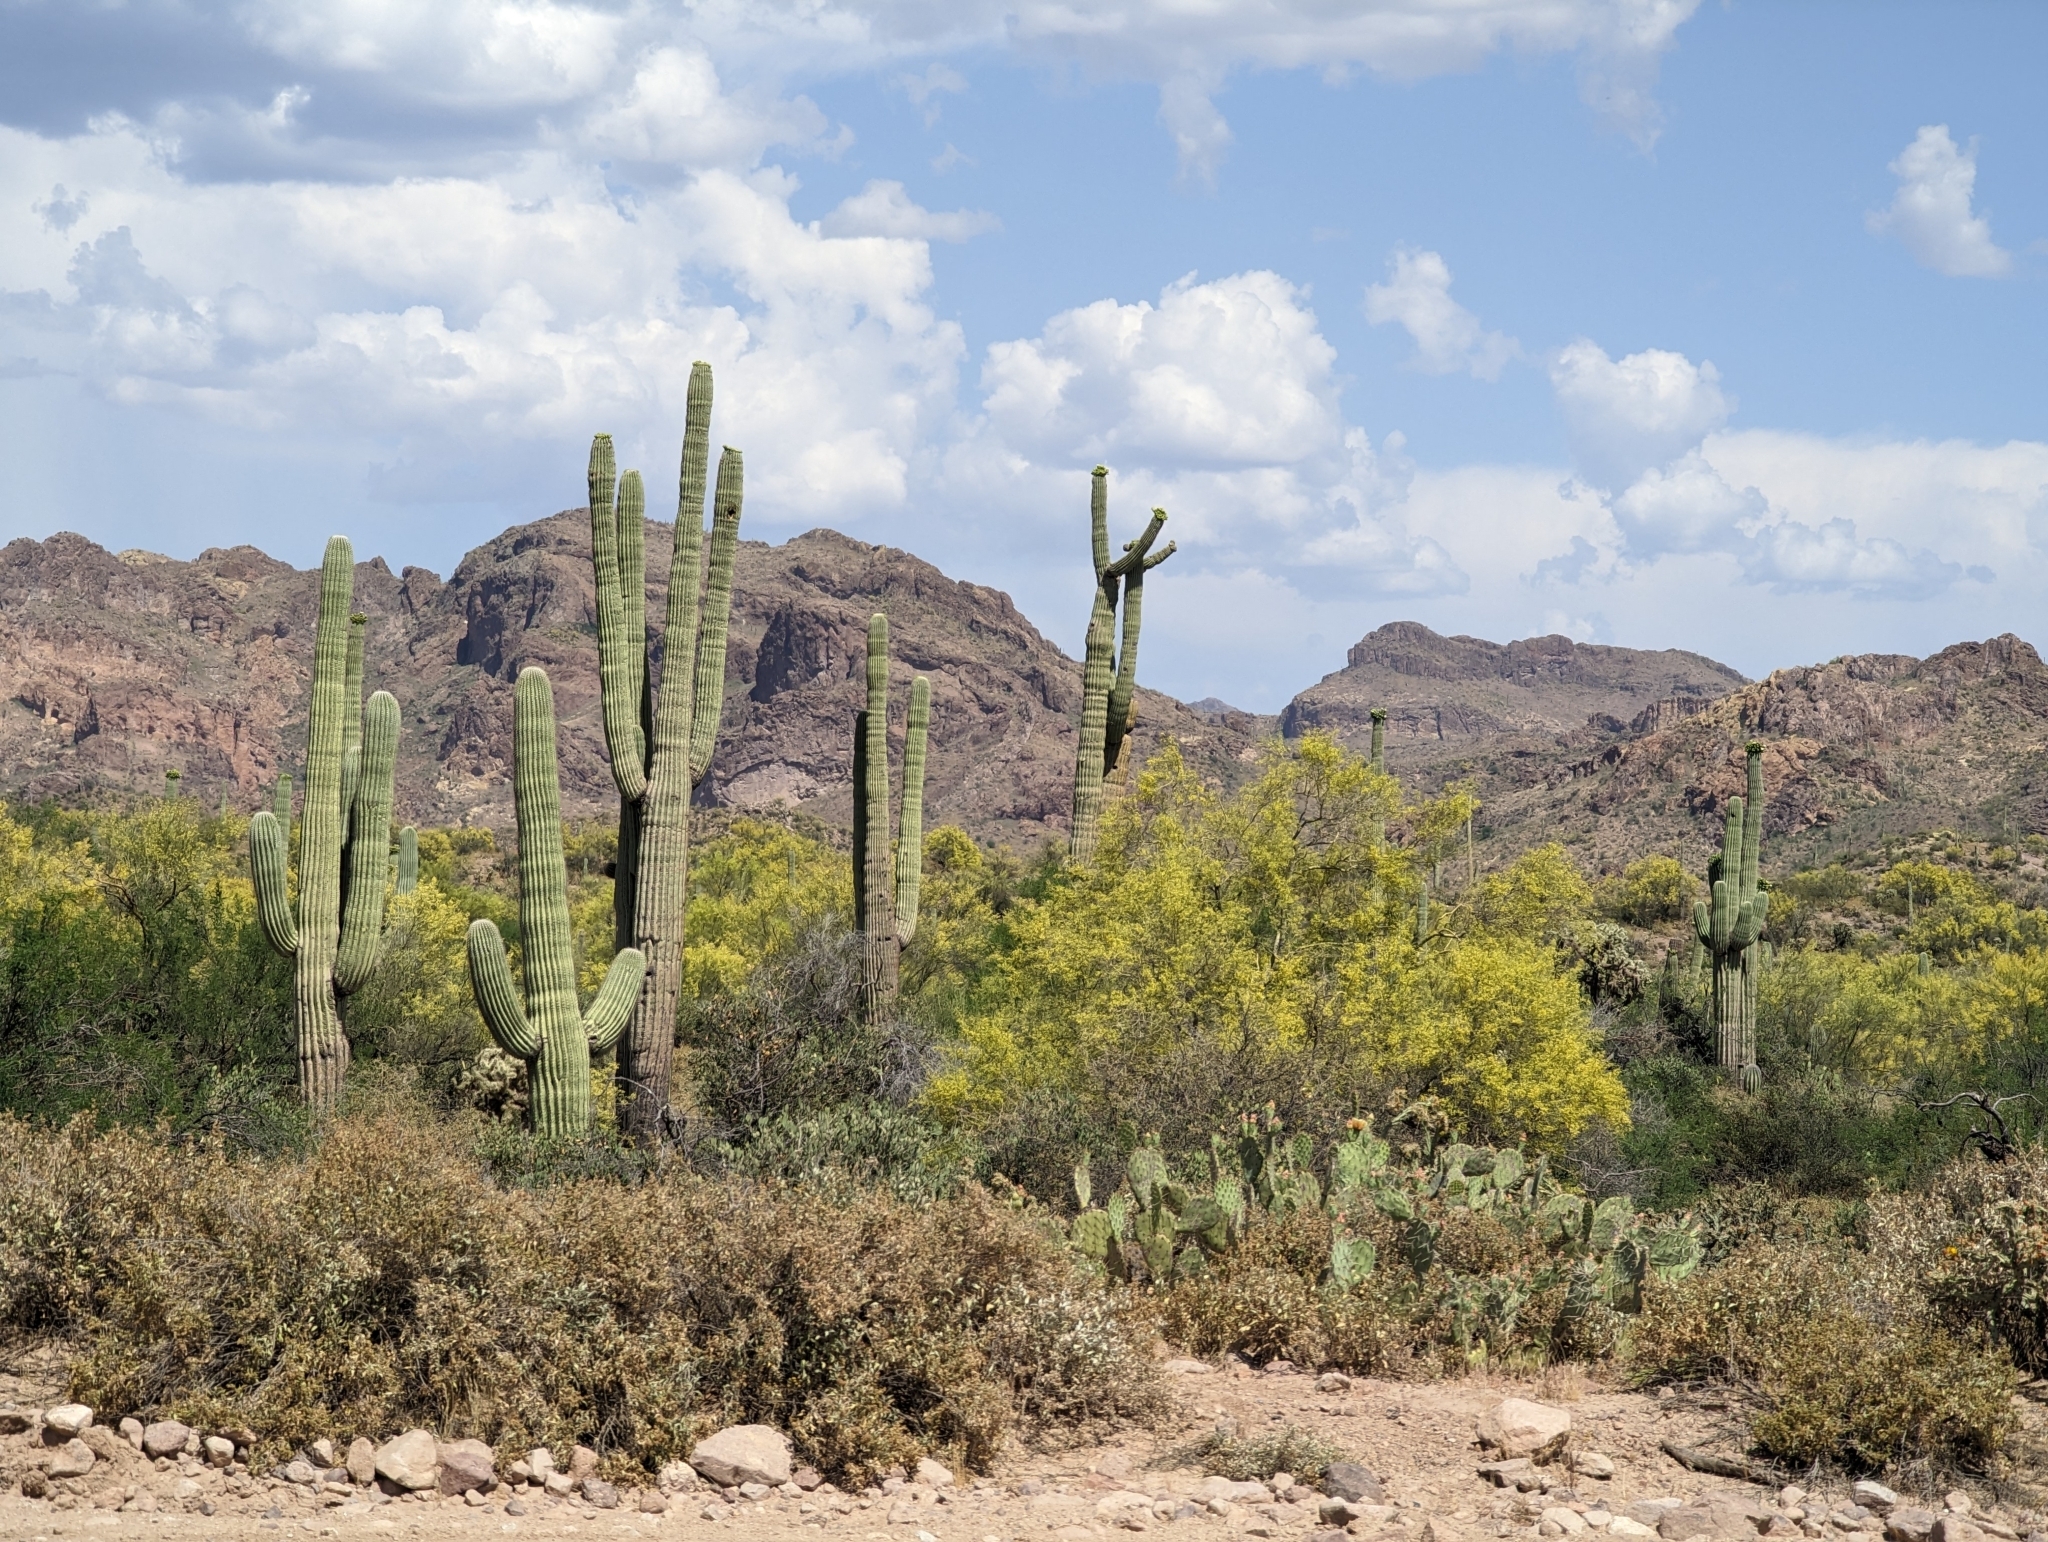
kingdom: Plantae
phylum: Tracheophyta
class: Magnoliopsida
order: Caryophyllales
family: Cactaceae
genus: Carnegiea
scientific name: Carnegiea gigantea
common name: Saguaro
